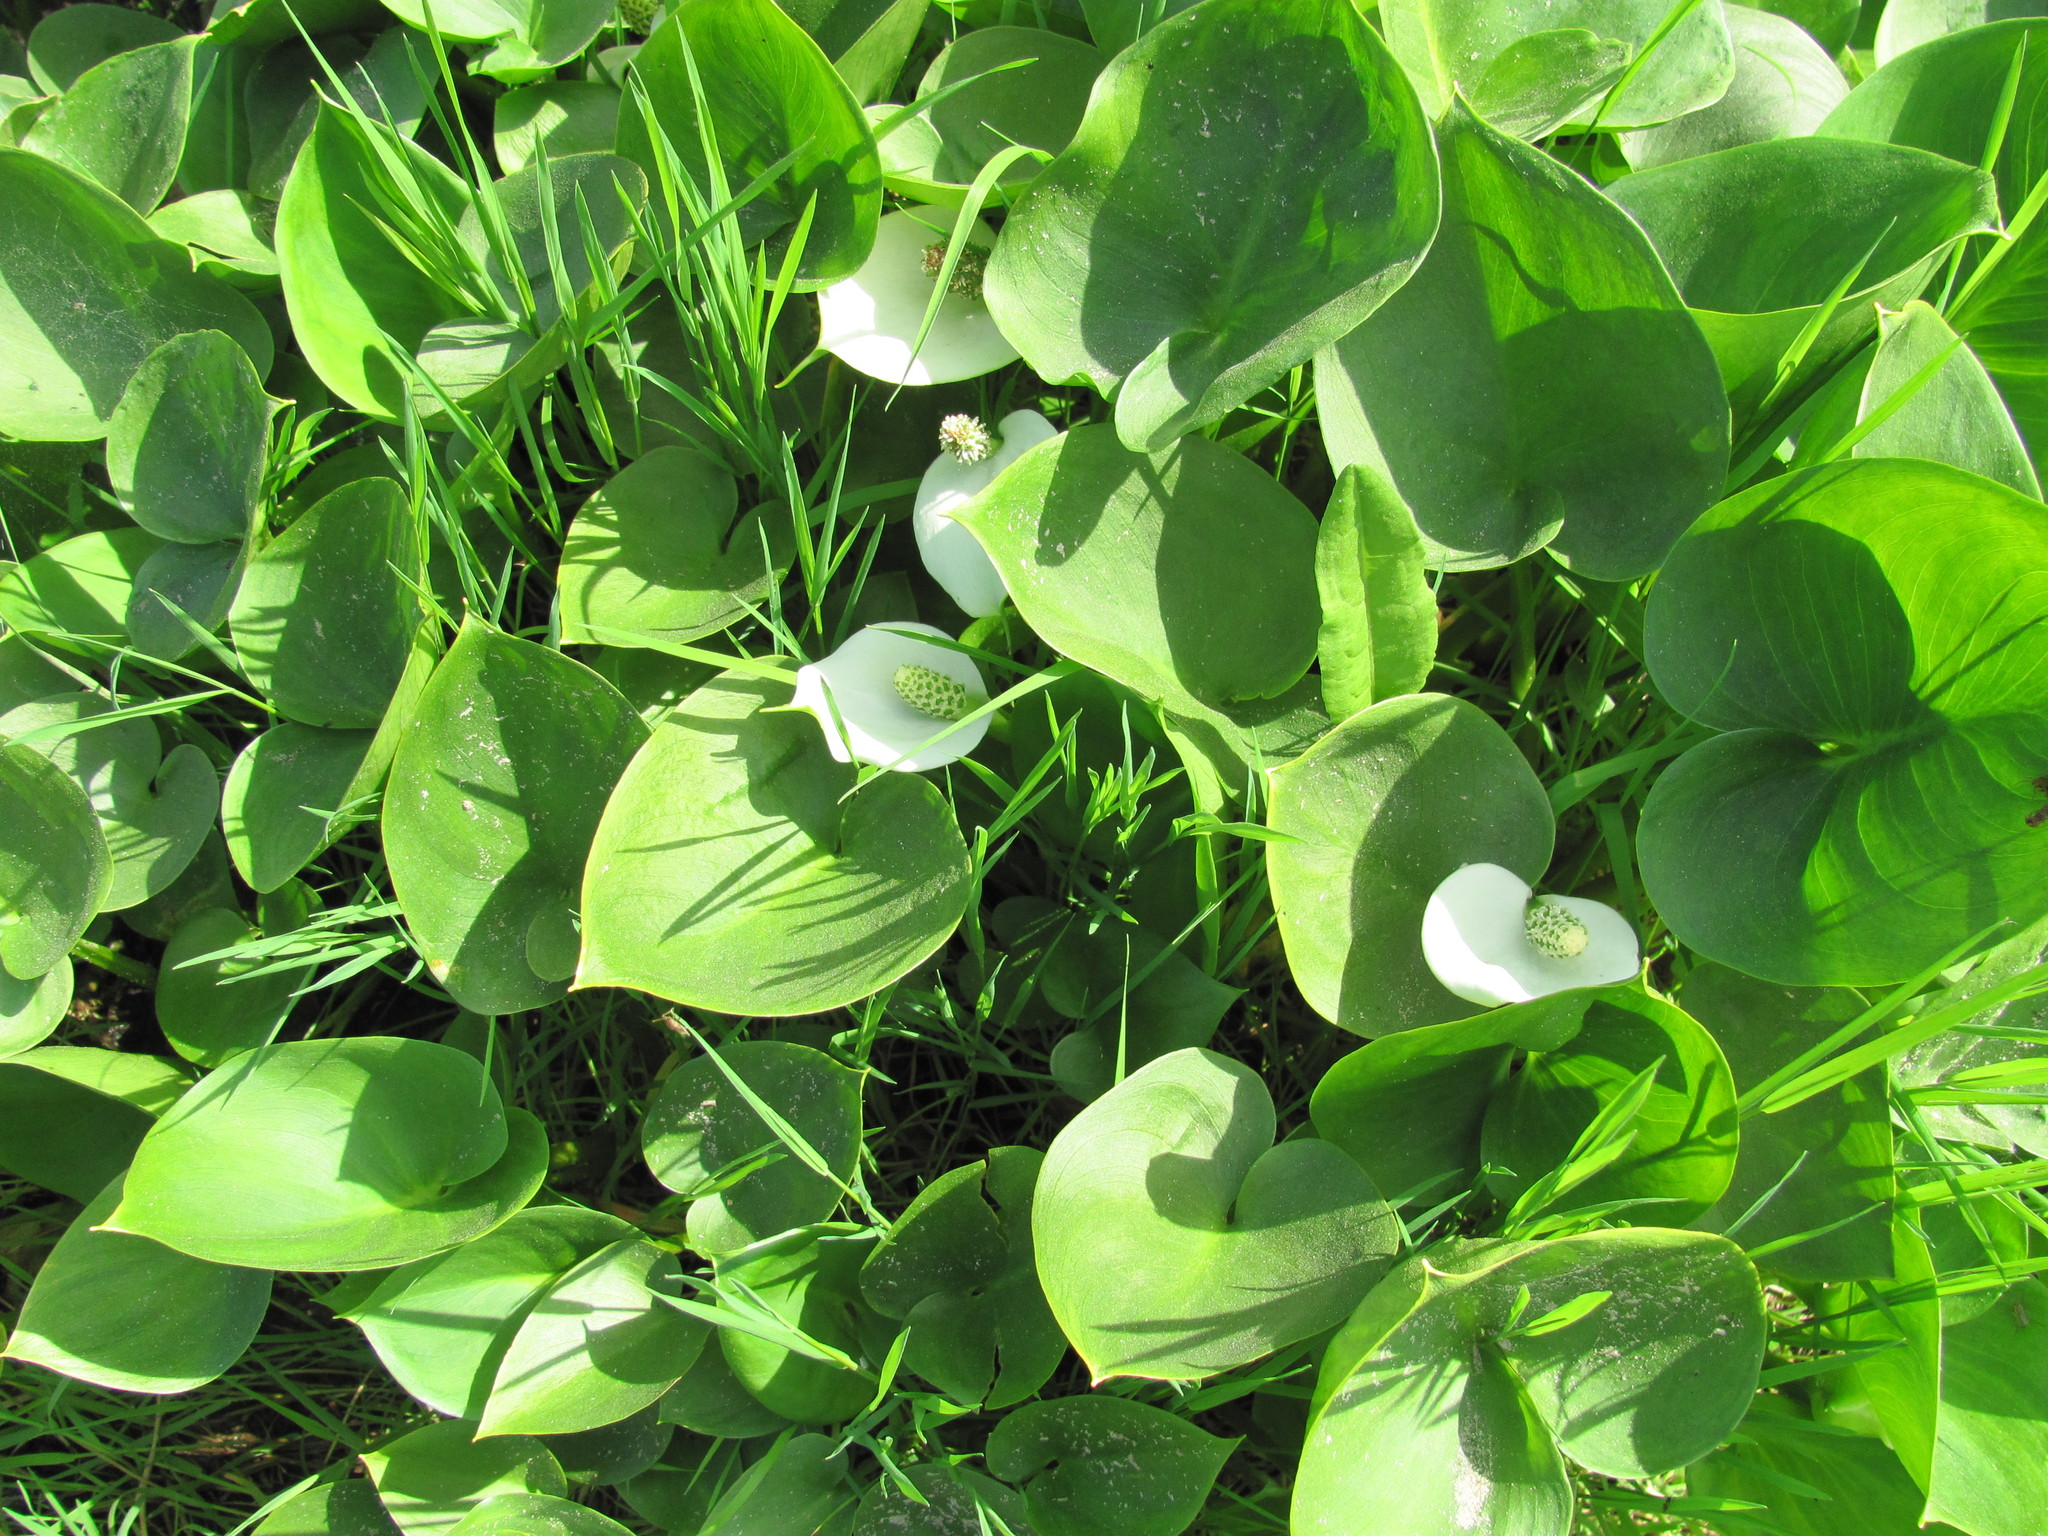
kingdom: Plantae
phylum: Tracheophyta
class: Liliopsida
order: Alismatales
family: Araceae
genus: Calla
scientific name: Calla palustris
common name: Bog arum
